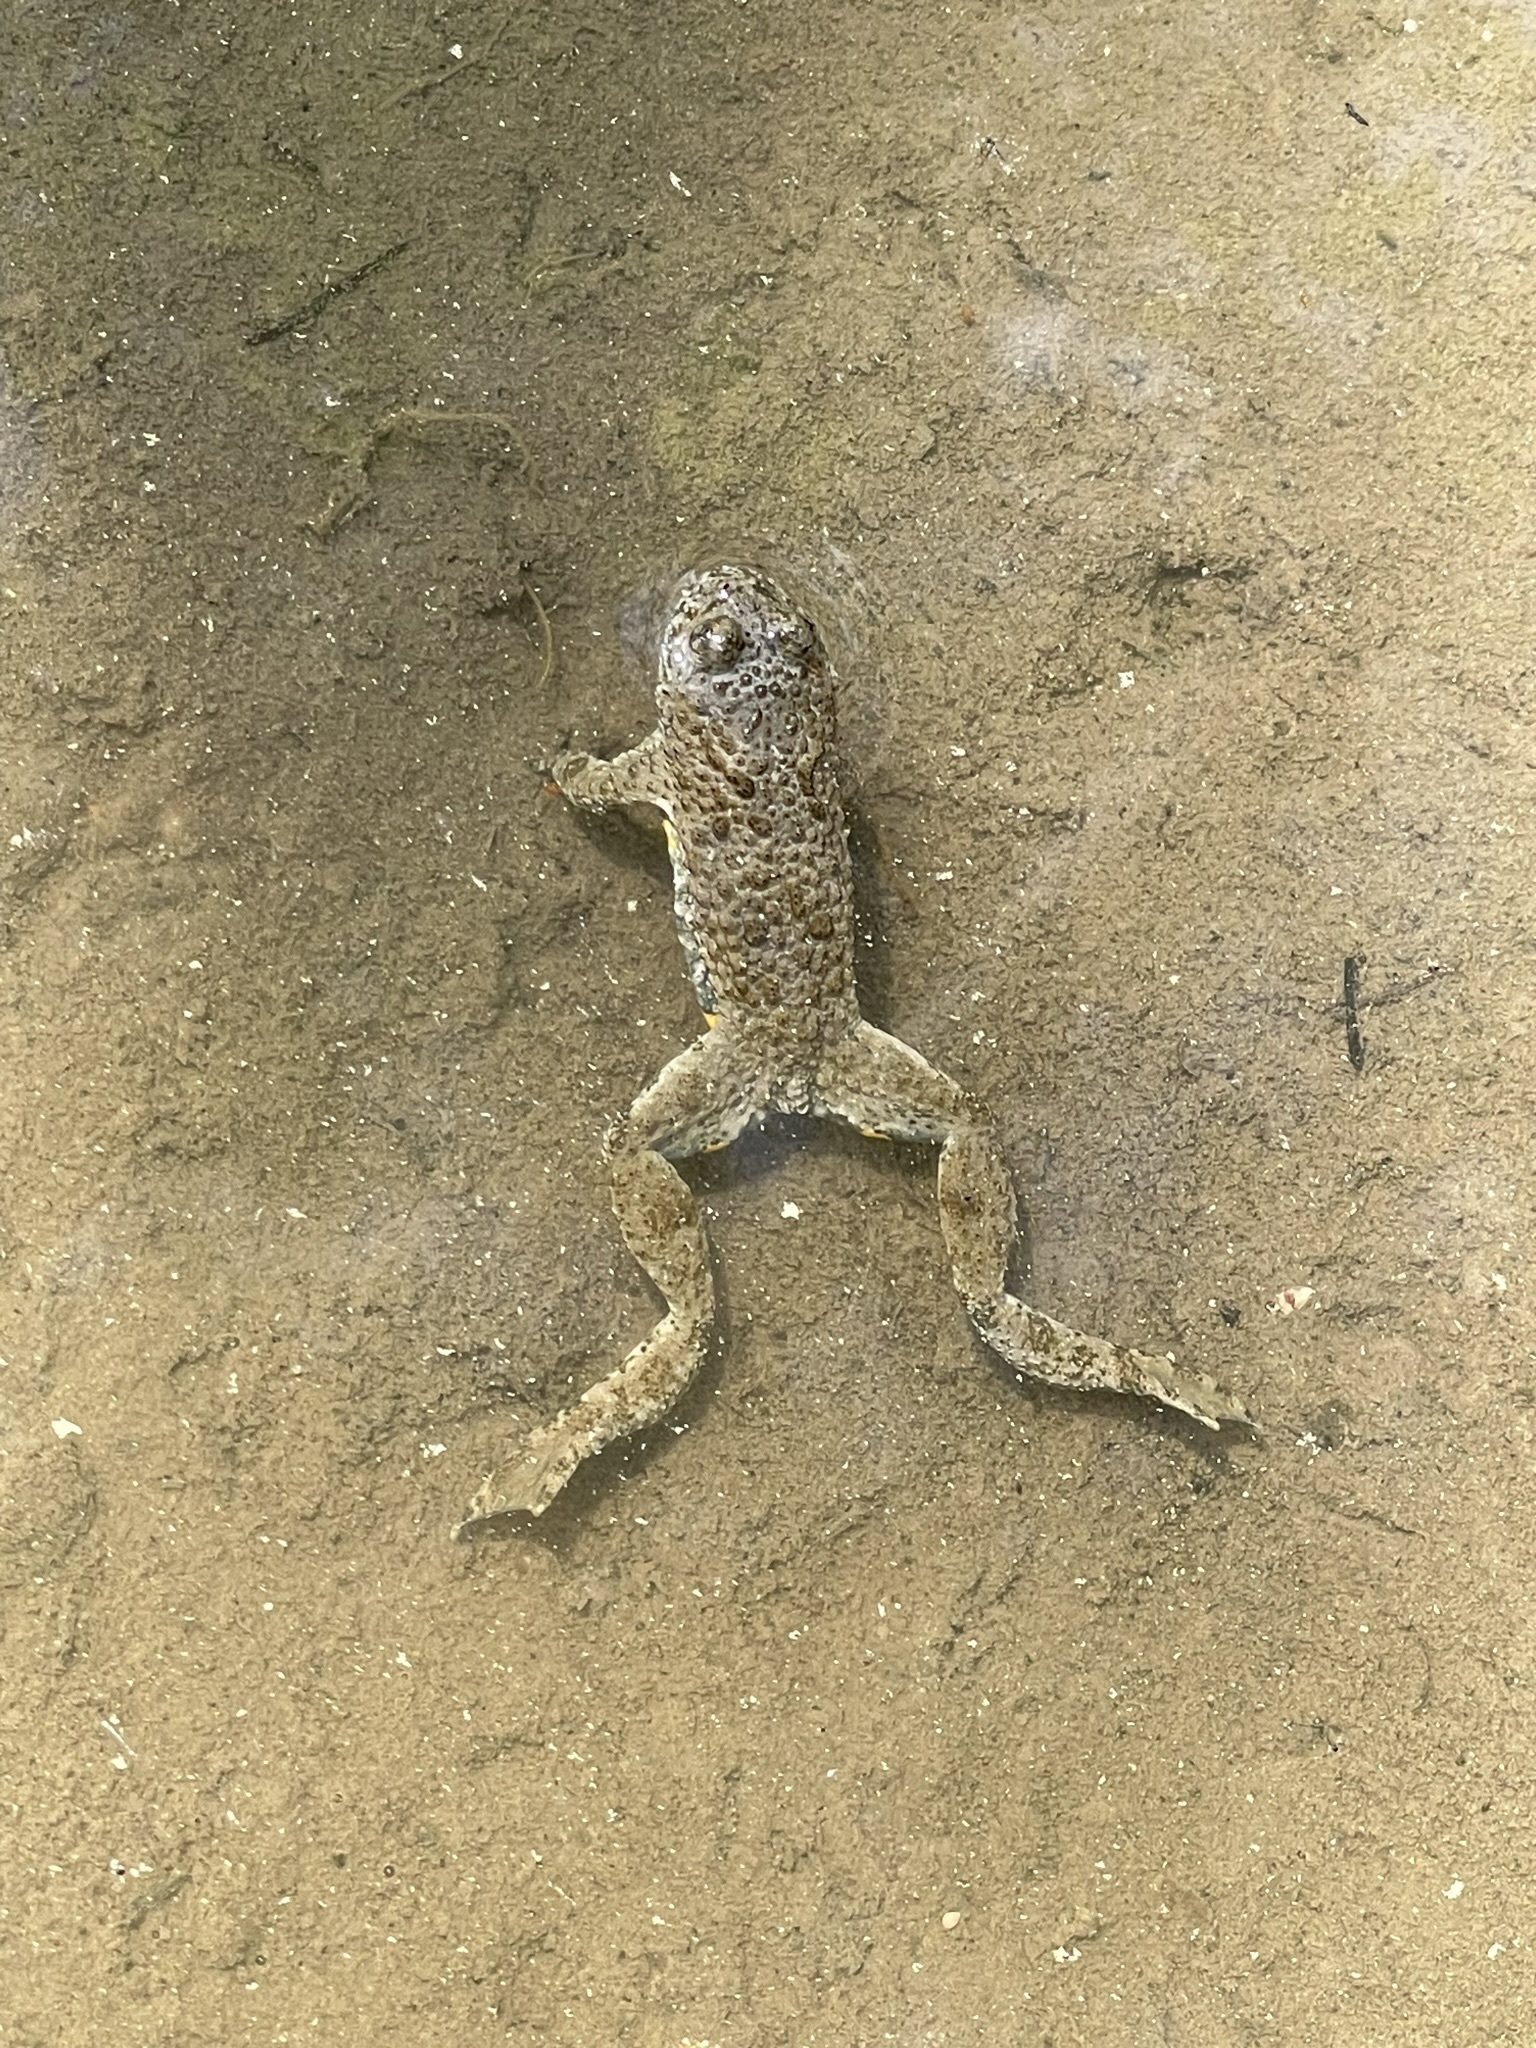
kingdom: Animalia
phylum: Chordata
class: Amphibia
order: Anura
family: Bombinatoridae
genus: Bombina
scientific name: Bombina variegata
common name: Yellow-bellied toad
